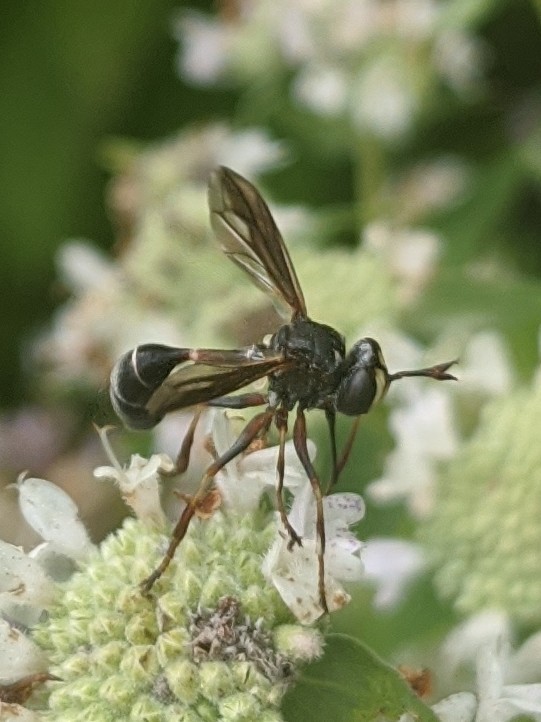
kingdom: Animalia
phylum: Arthropoda
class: Insecta
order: Diptera
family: Conopidae
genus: Physocephala
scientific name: Physocephala furcillata
